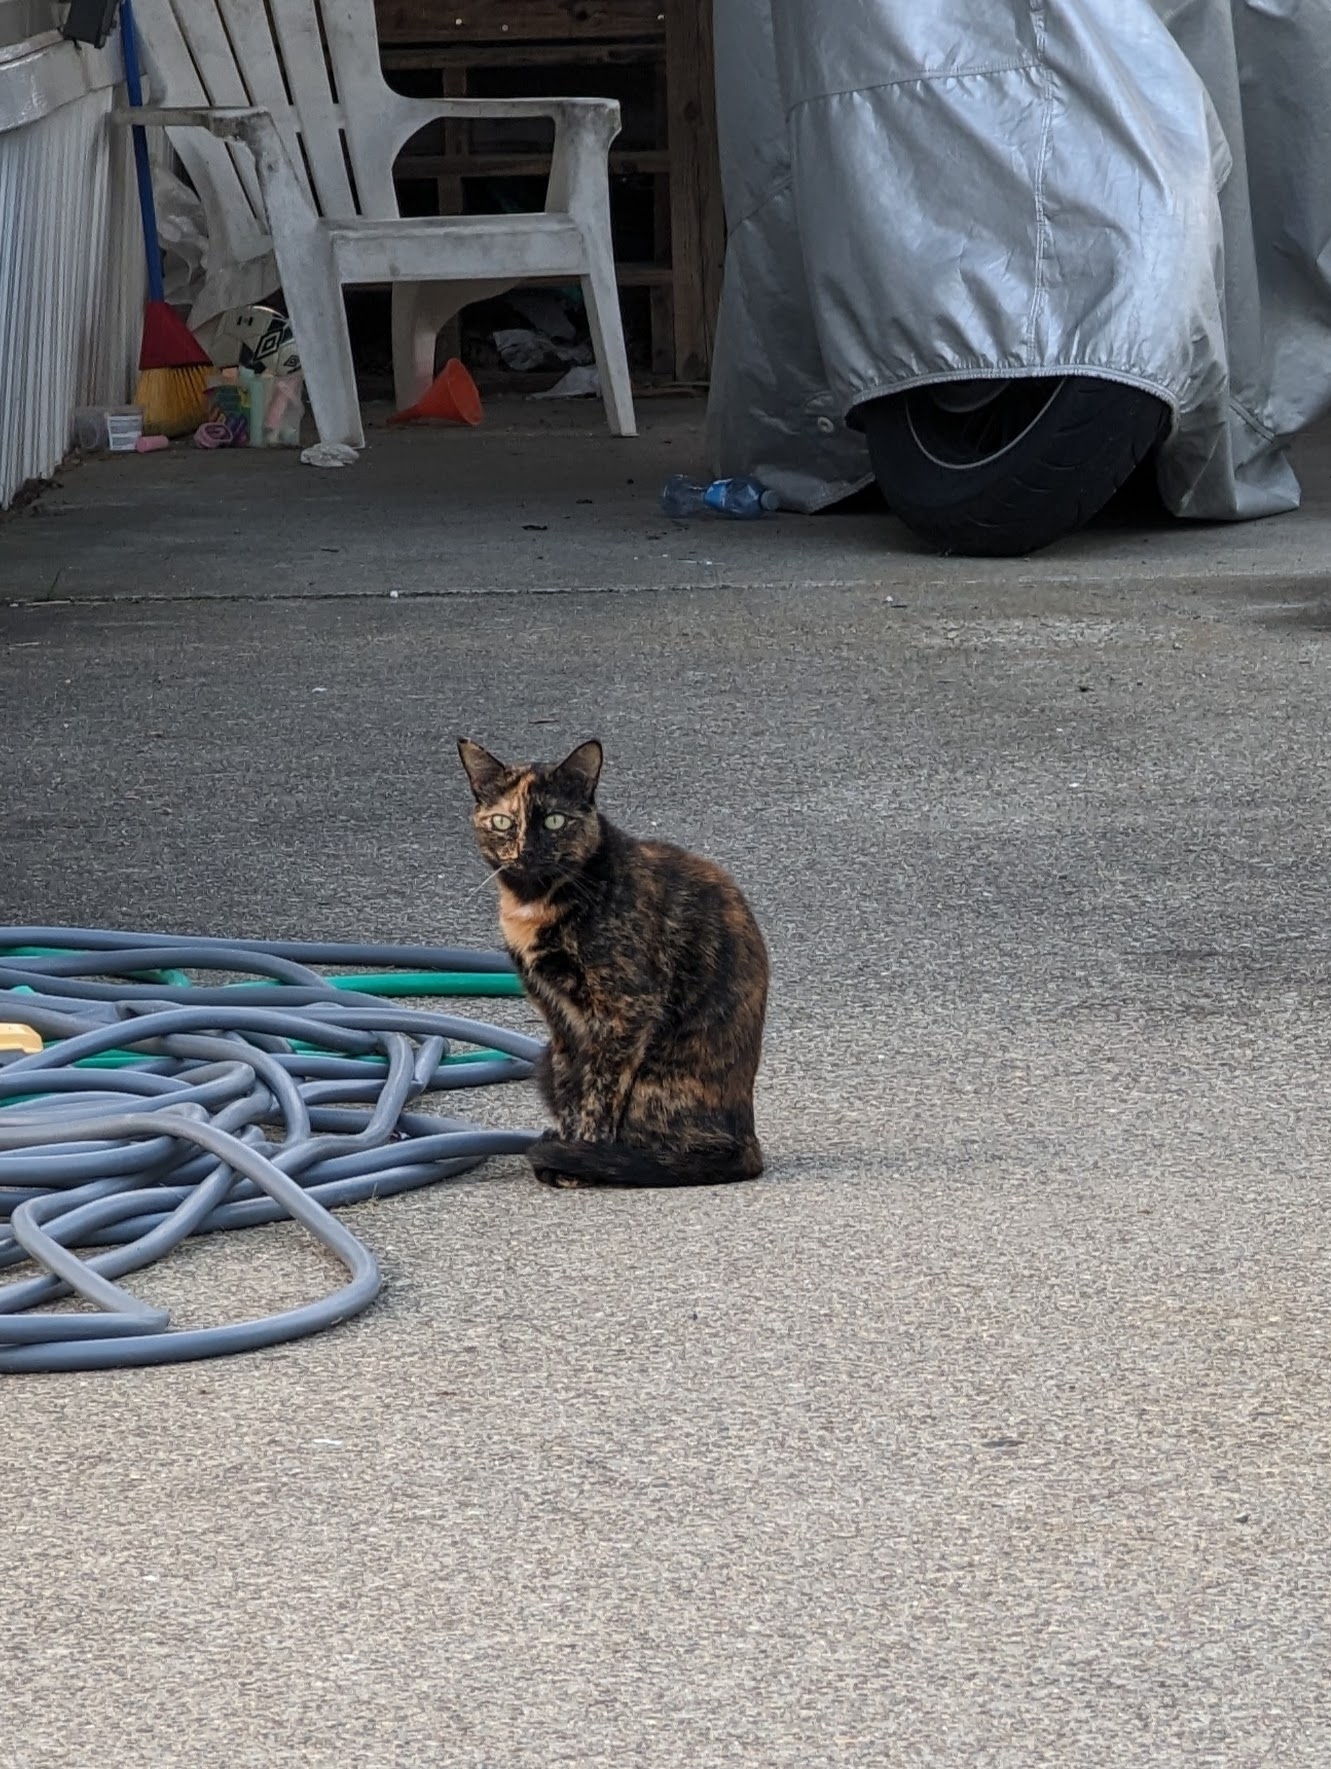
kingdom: Animalia
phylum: Chordata
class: Mammalia
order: Carnivora
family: Felidae
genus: Felis
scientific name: Felis catus
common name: Domestic cat
